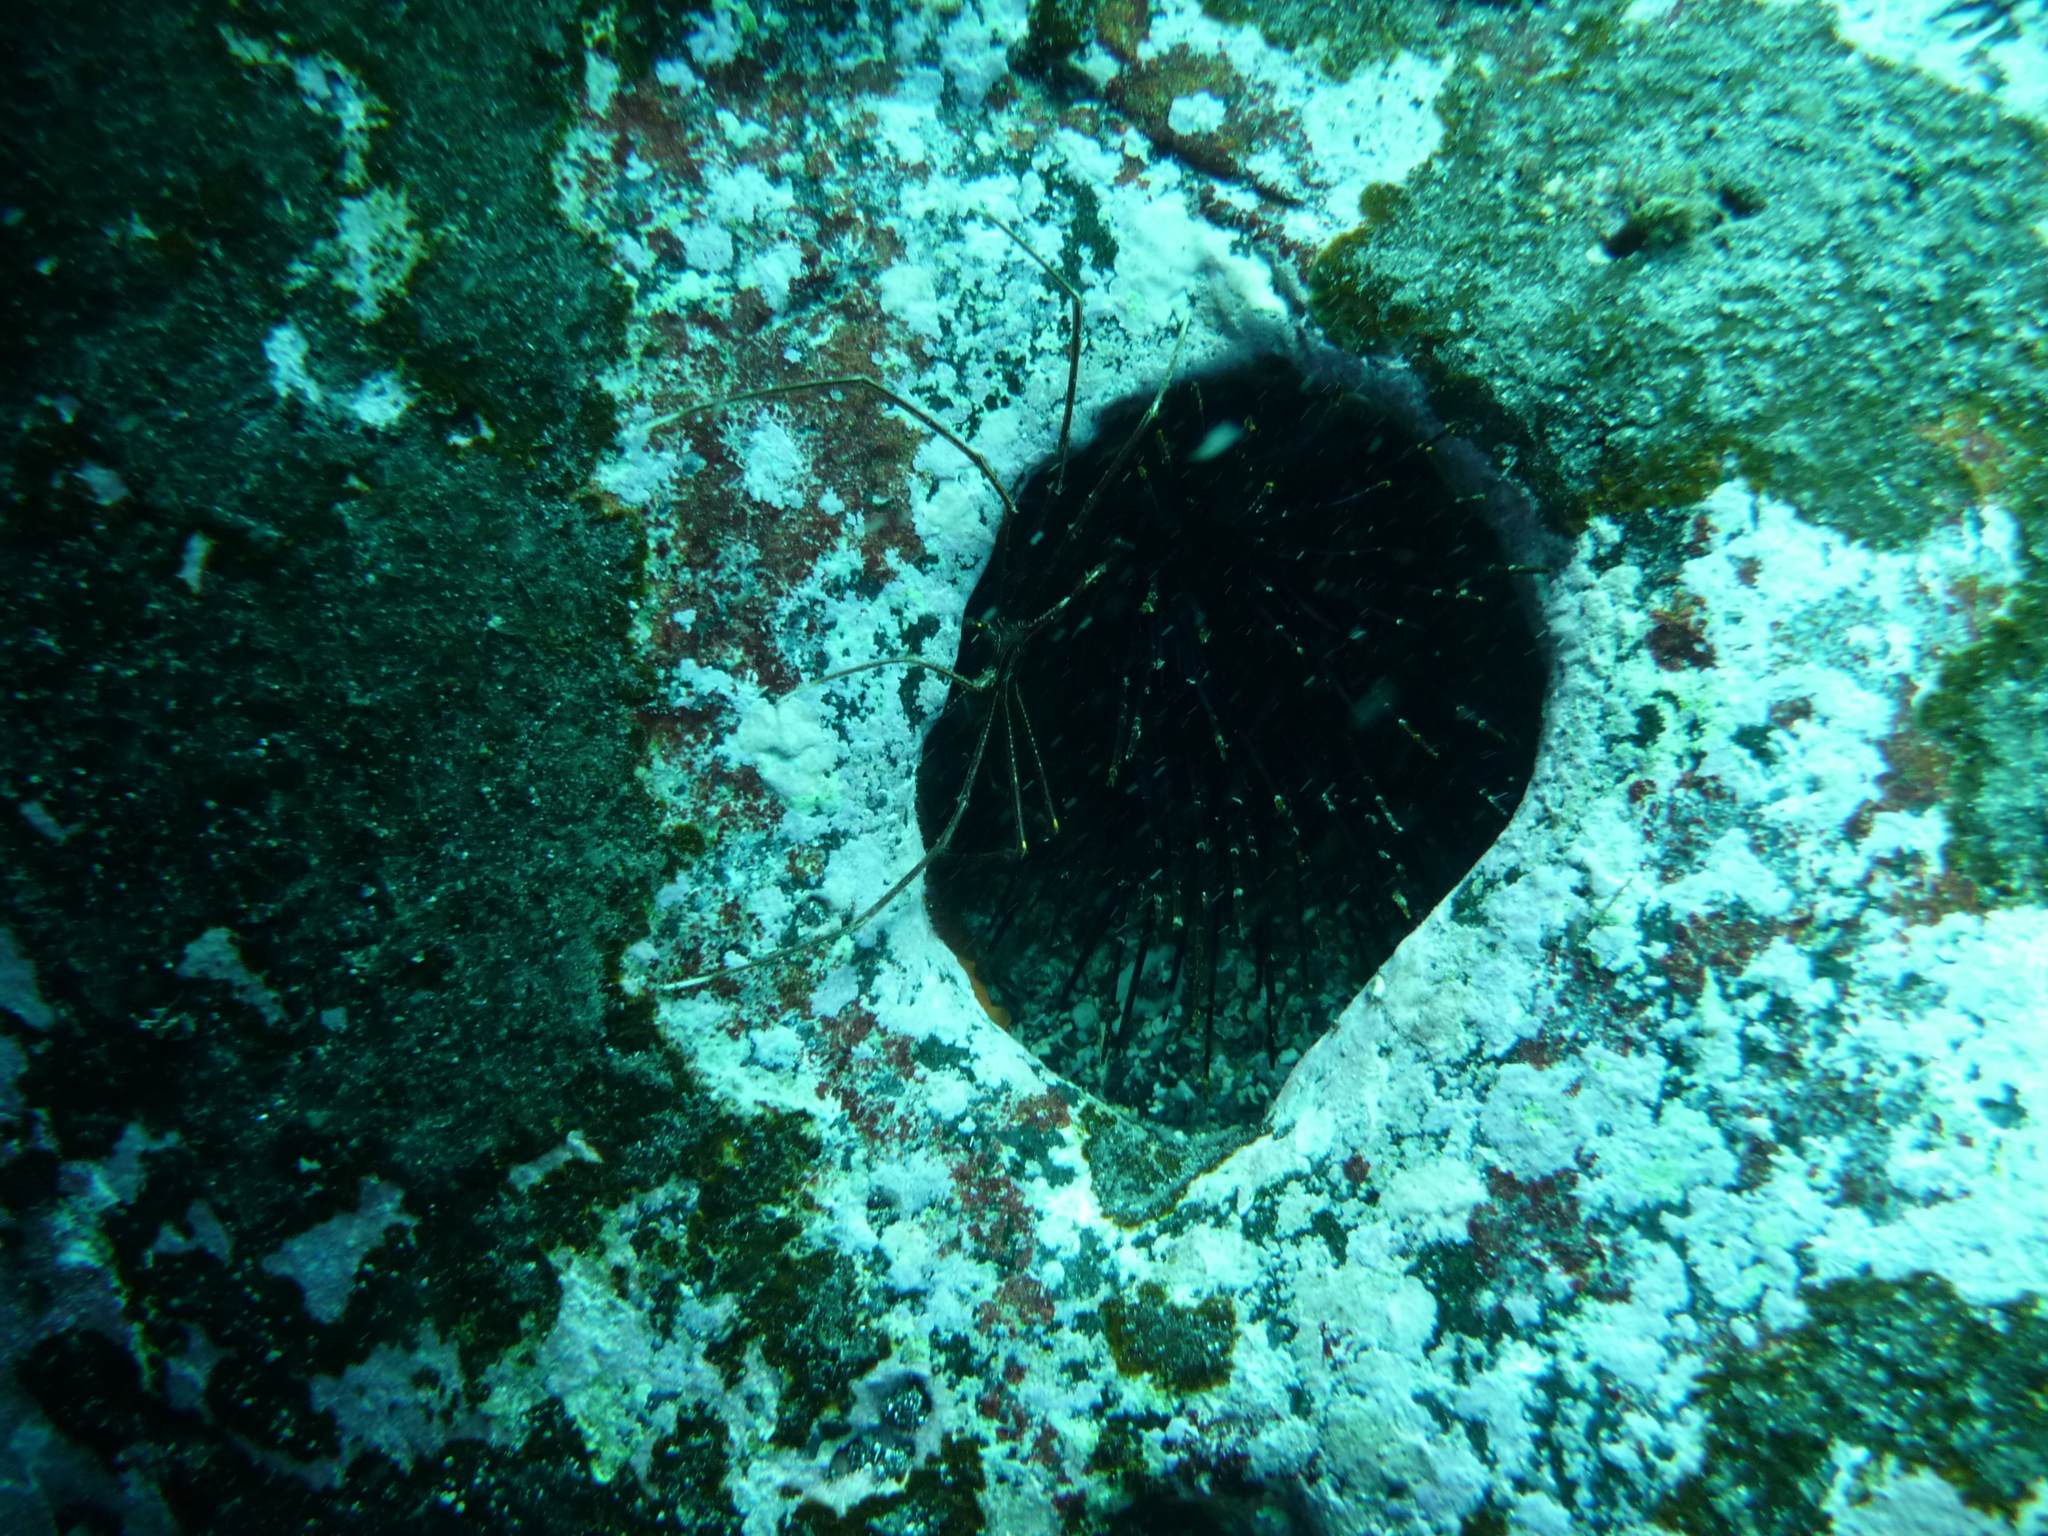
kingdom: Animalia
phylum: Arthropoda
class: Malacostraca
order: Decapoda
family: Inachoididae
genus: Stenorhynchus
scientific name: Stenorhynchus lanceolatus
